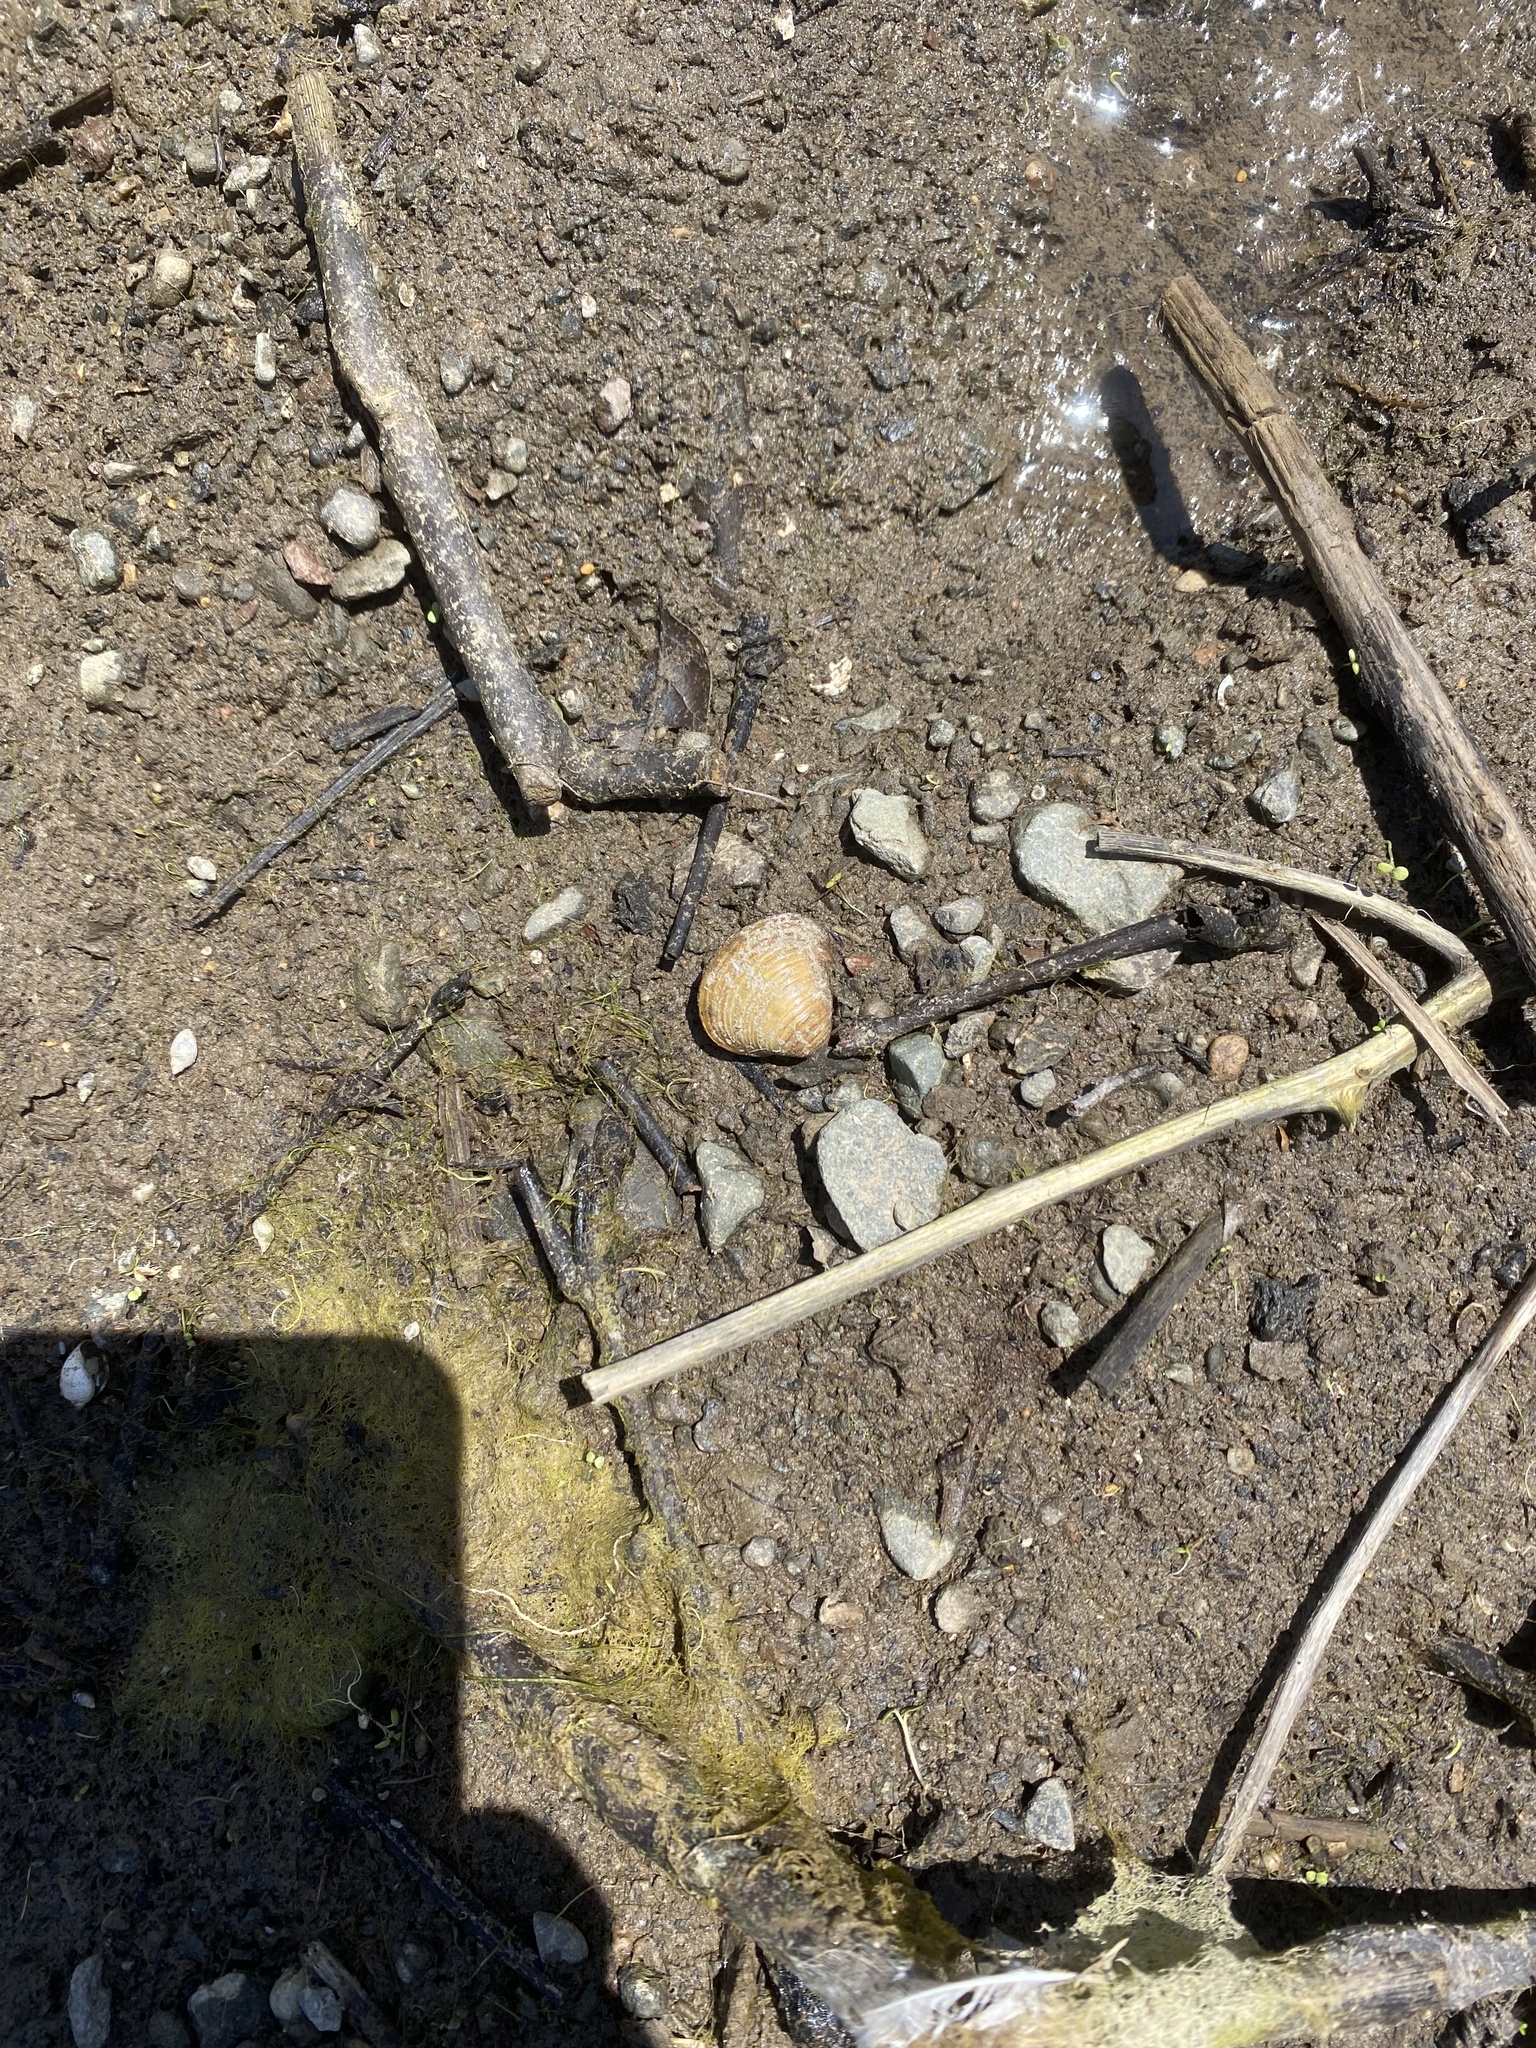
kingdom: Animalia
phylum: Mollusca
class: Bivalvia
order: Venerida
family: Cyrenidae
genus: Corbicula
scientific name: Corbicula fluminea
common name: Asian clam
